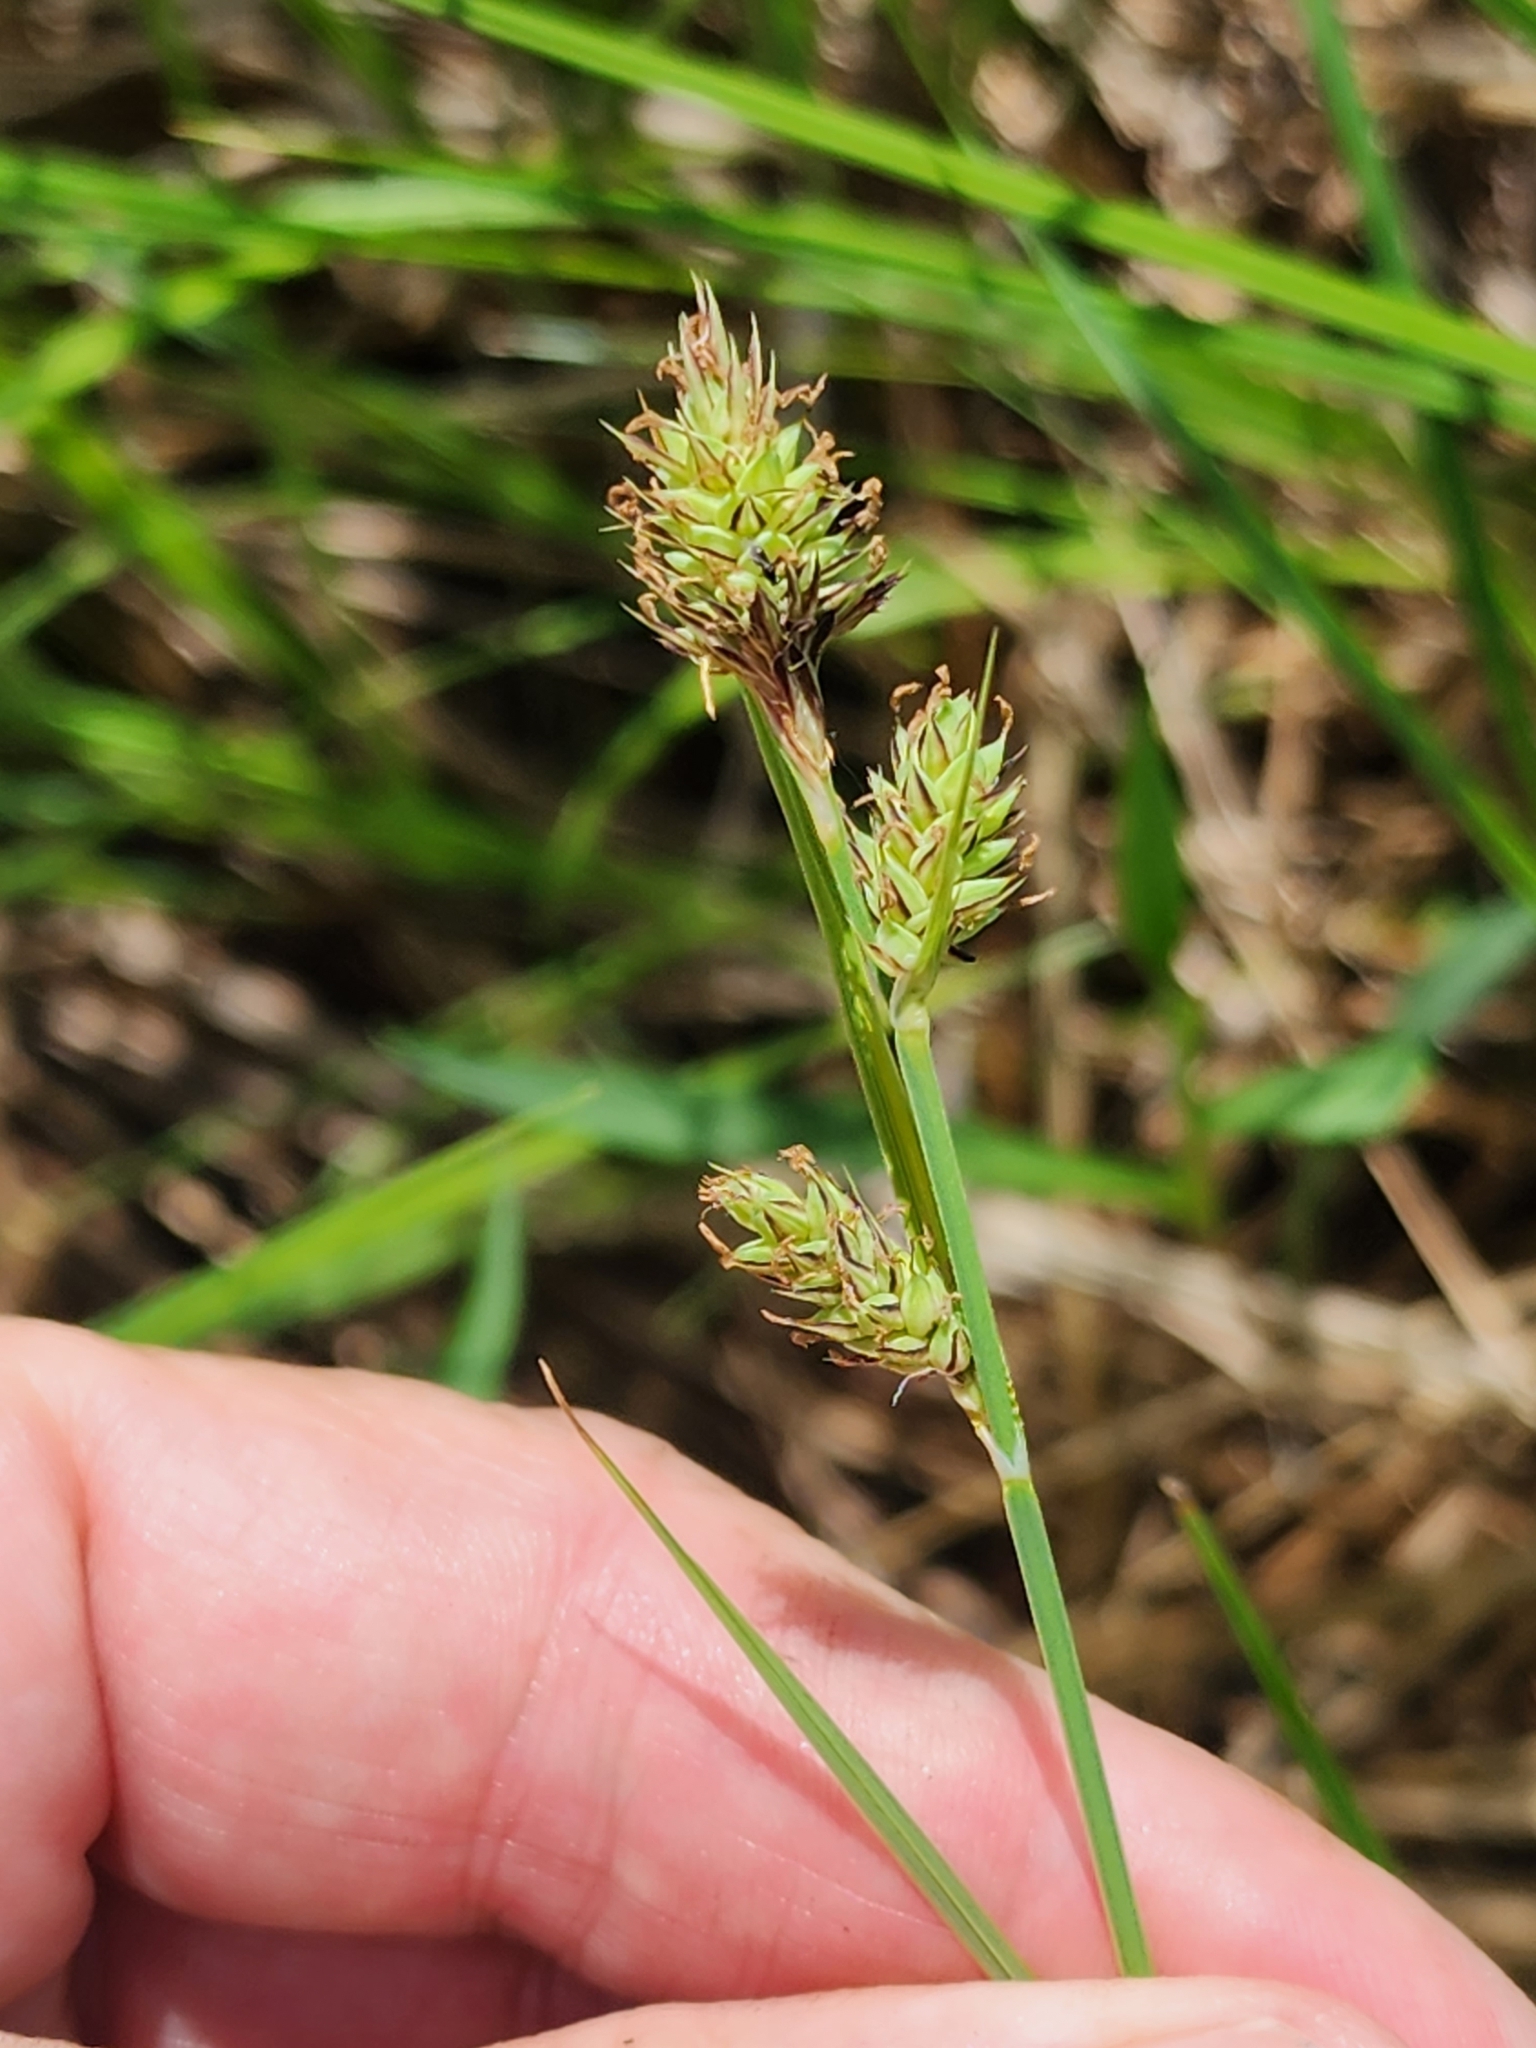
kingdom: Plantae
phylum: Tracheophyta
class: Liliopsida
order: Poales
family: Cyperaceae
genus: Carex
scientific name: Carex buxbaumii
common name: Club sedge
